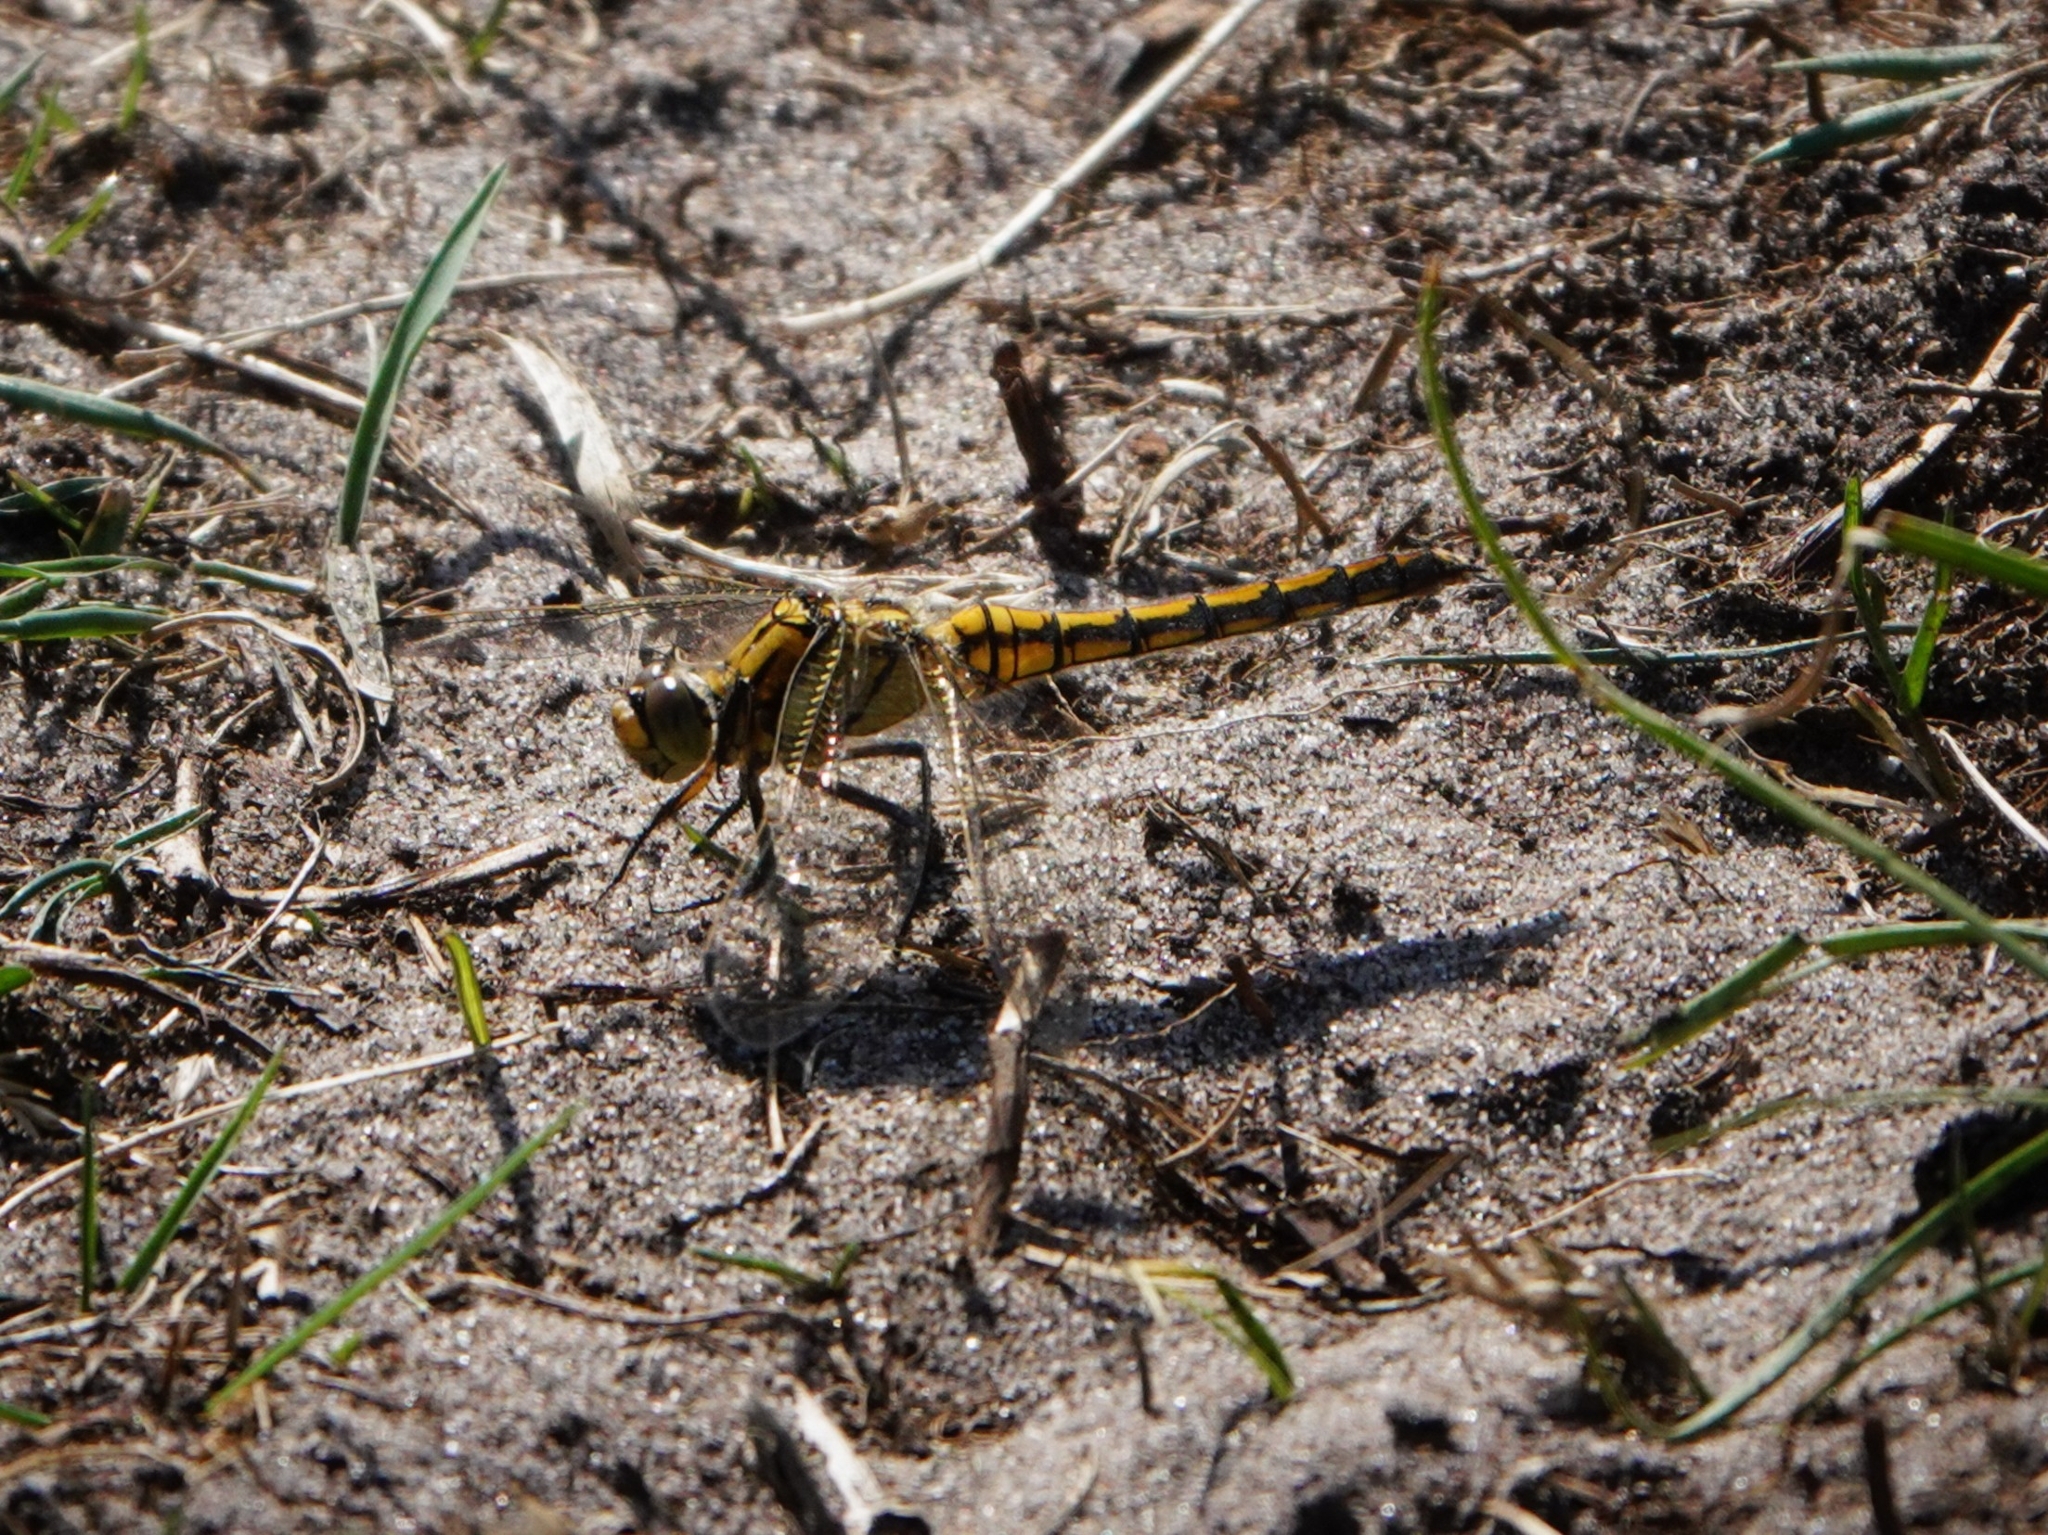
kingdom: Animalia
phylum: Arthropoda
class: Insecta
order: Odonata
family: Libellulidae
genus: Orthetrum
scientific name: Orthetrum cancellatum
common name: Black-tailed skimmer
